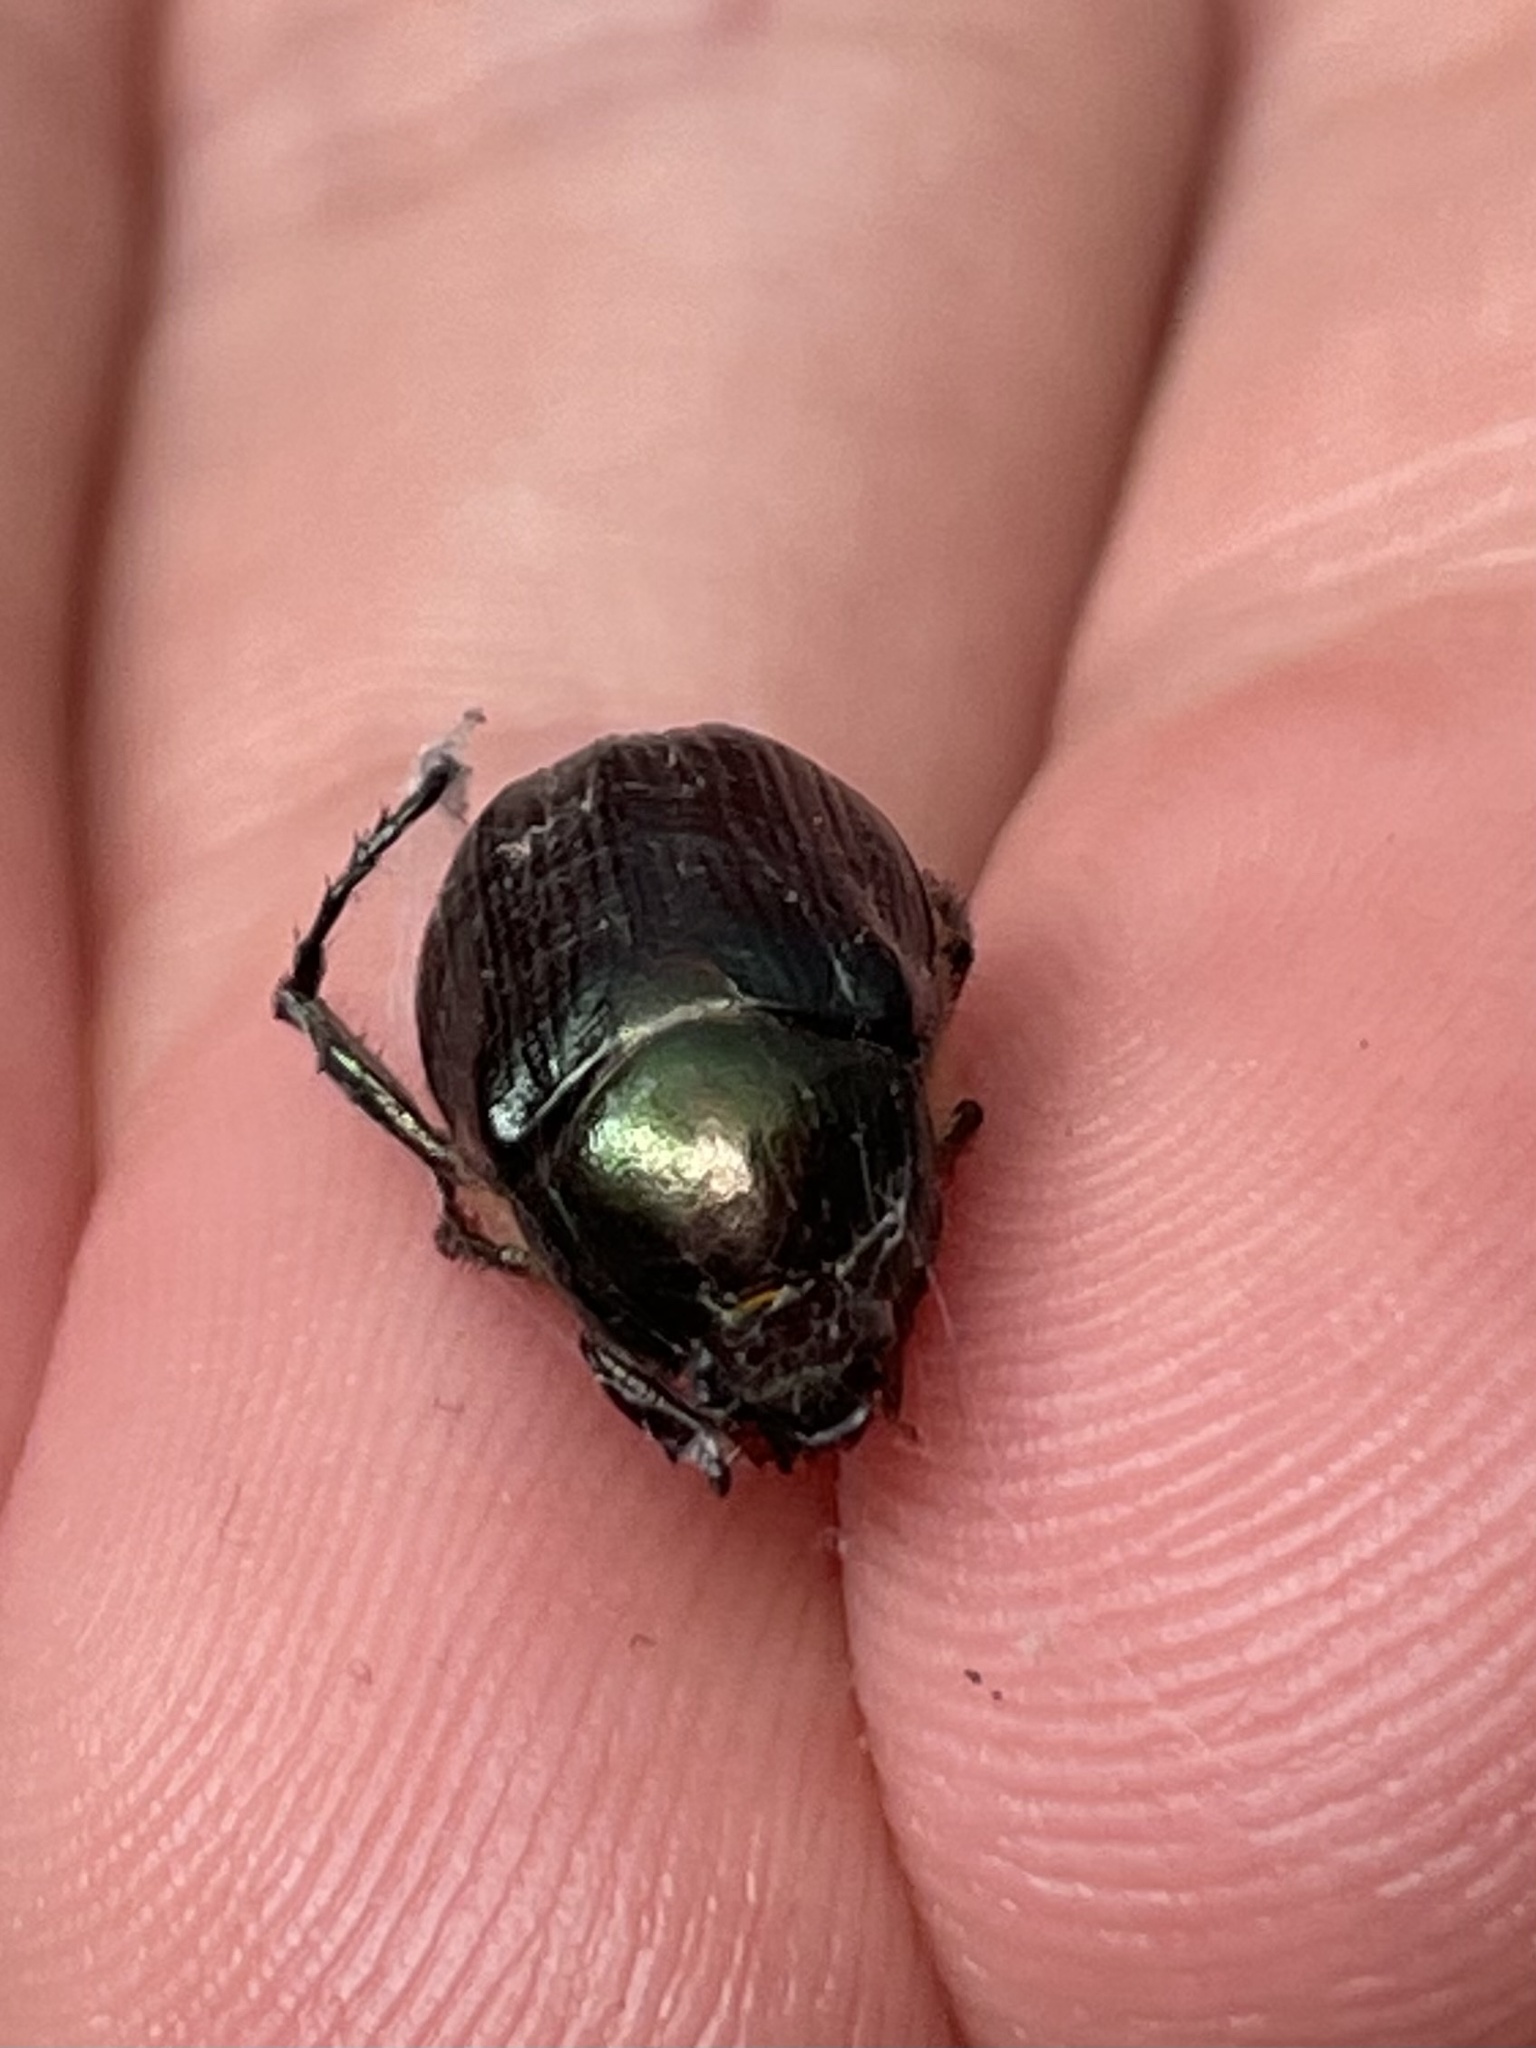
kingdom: Animalia
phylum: Arthropoda
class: Insecta
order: Coleoptera
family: Scarabaeidae
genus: Anomala
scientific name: Anomala insitiva
